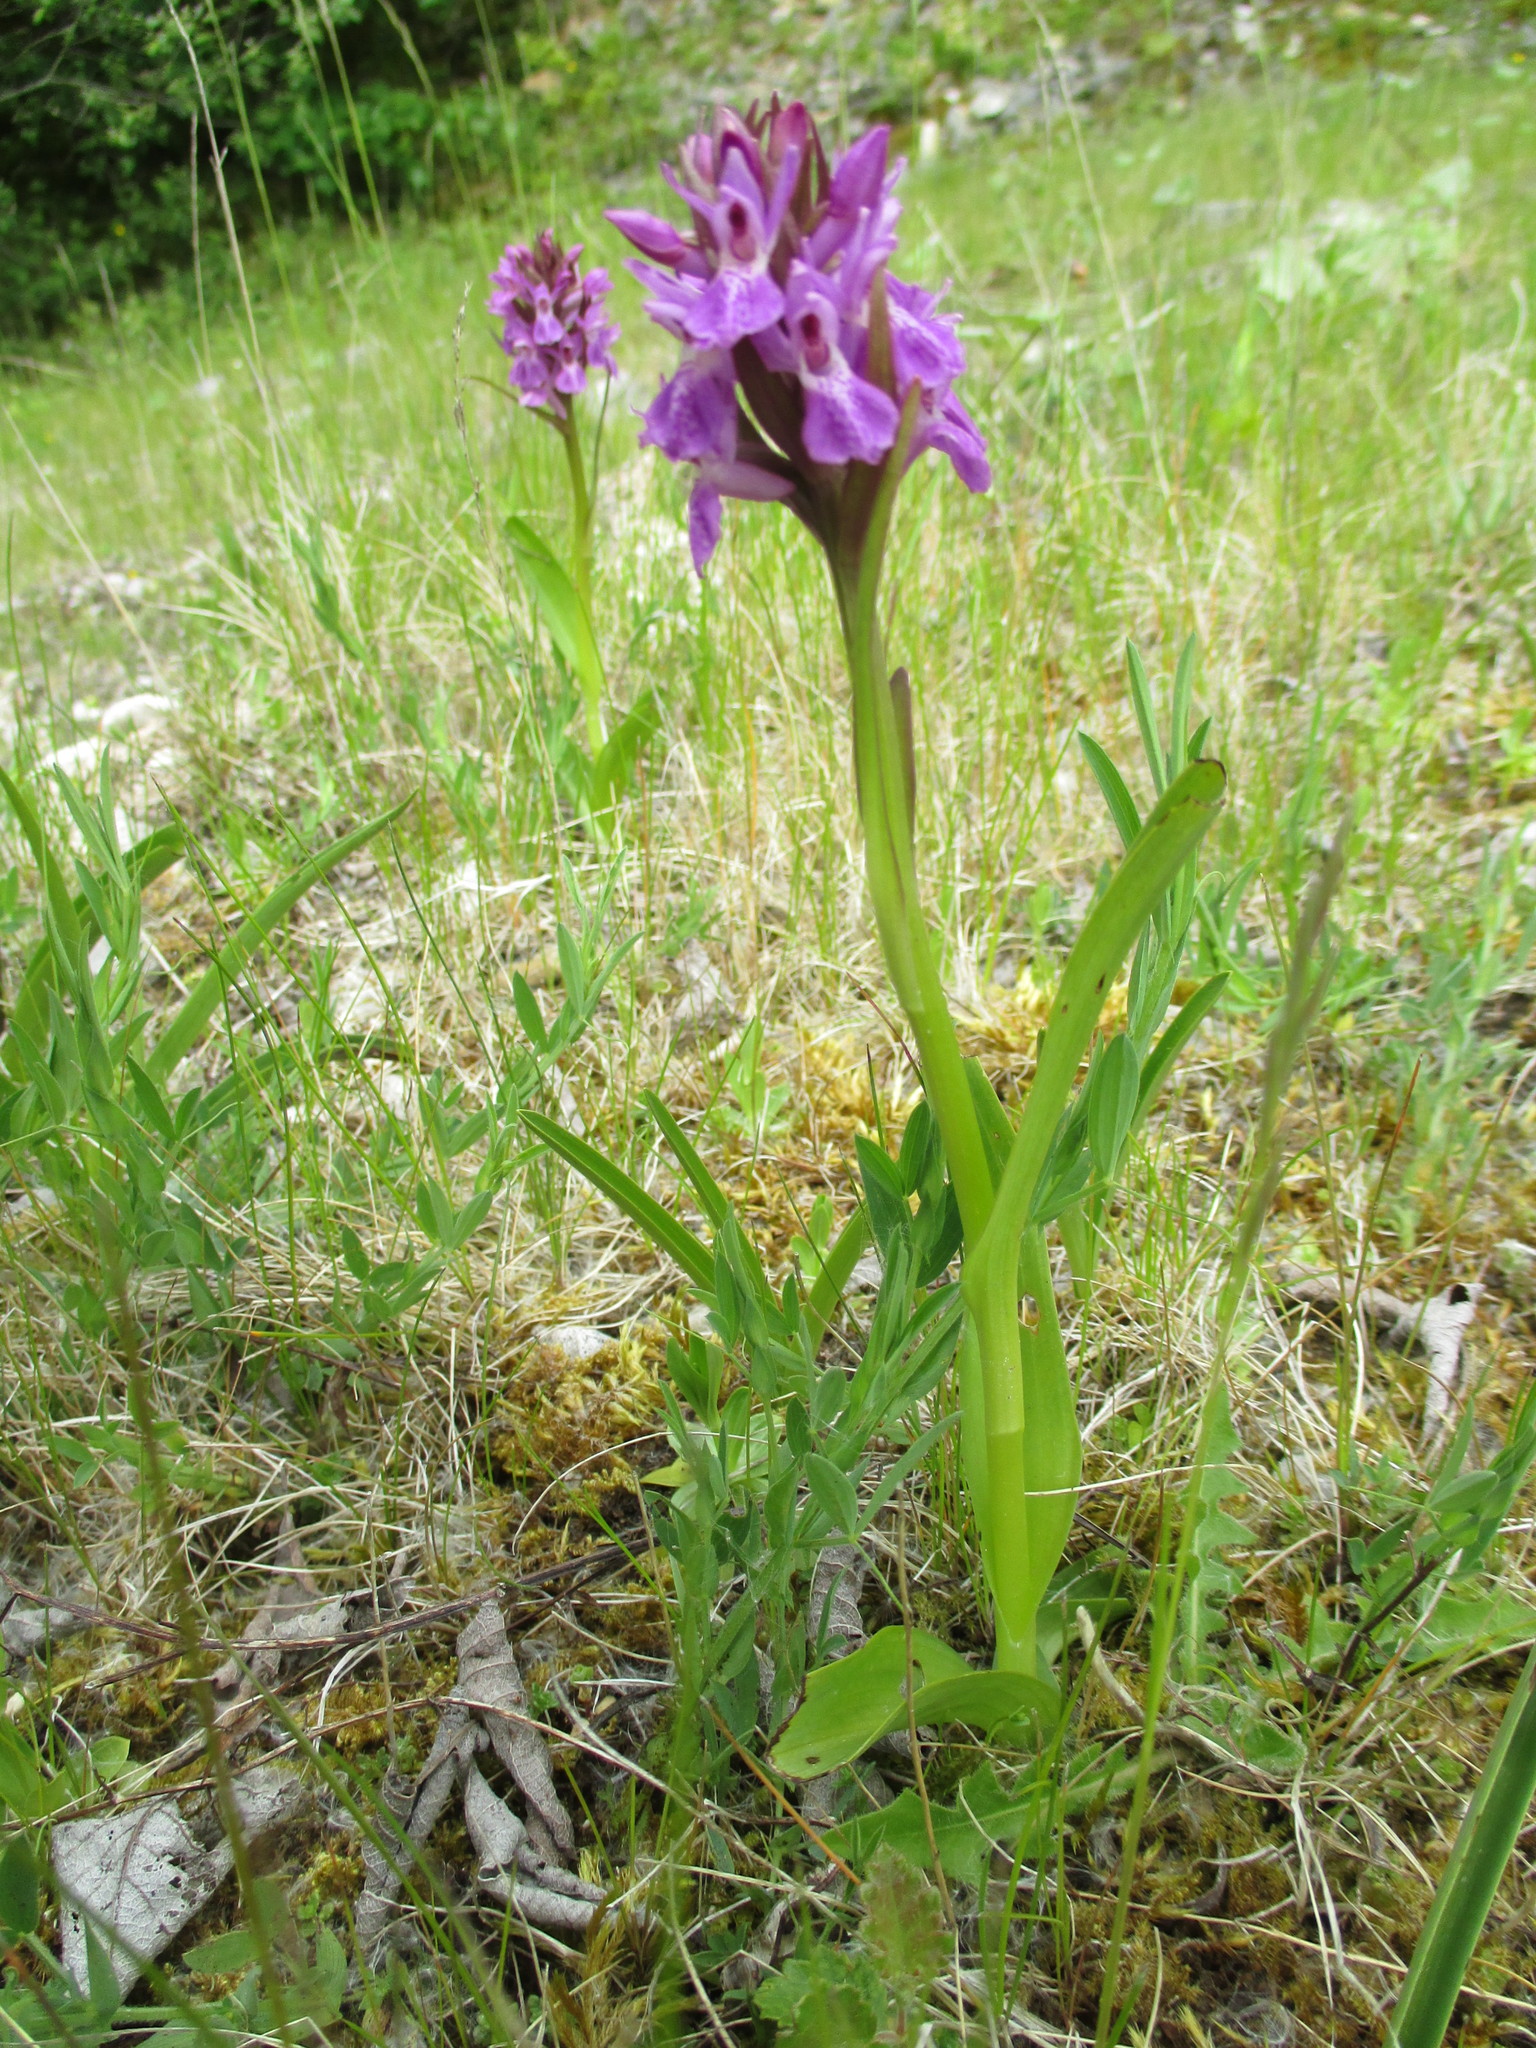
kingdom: Plantae
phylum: Tracheophyta
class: Liliopsida
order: Asparagales
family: Orchidaceae
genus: Dactylorhiza
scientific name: Dactylorhiza majalis
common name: Marsh orchid
